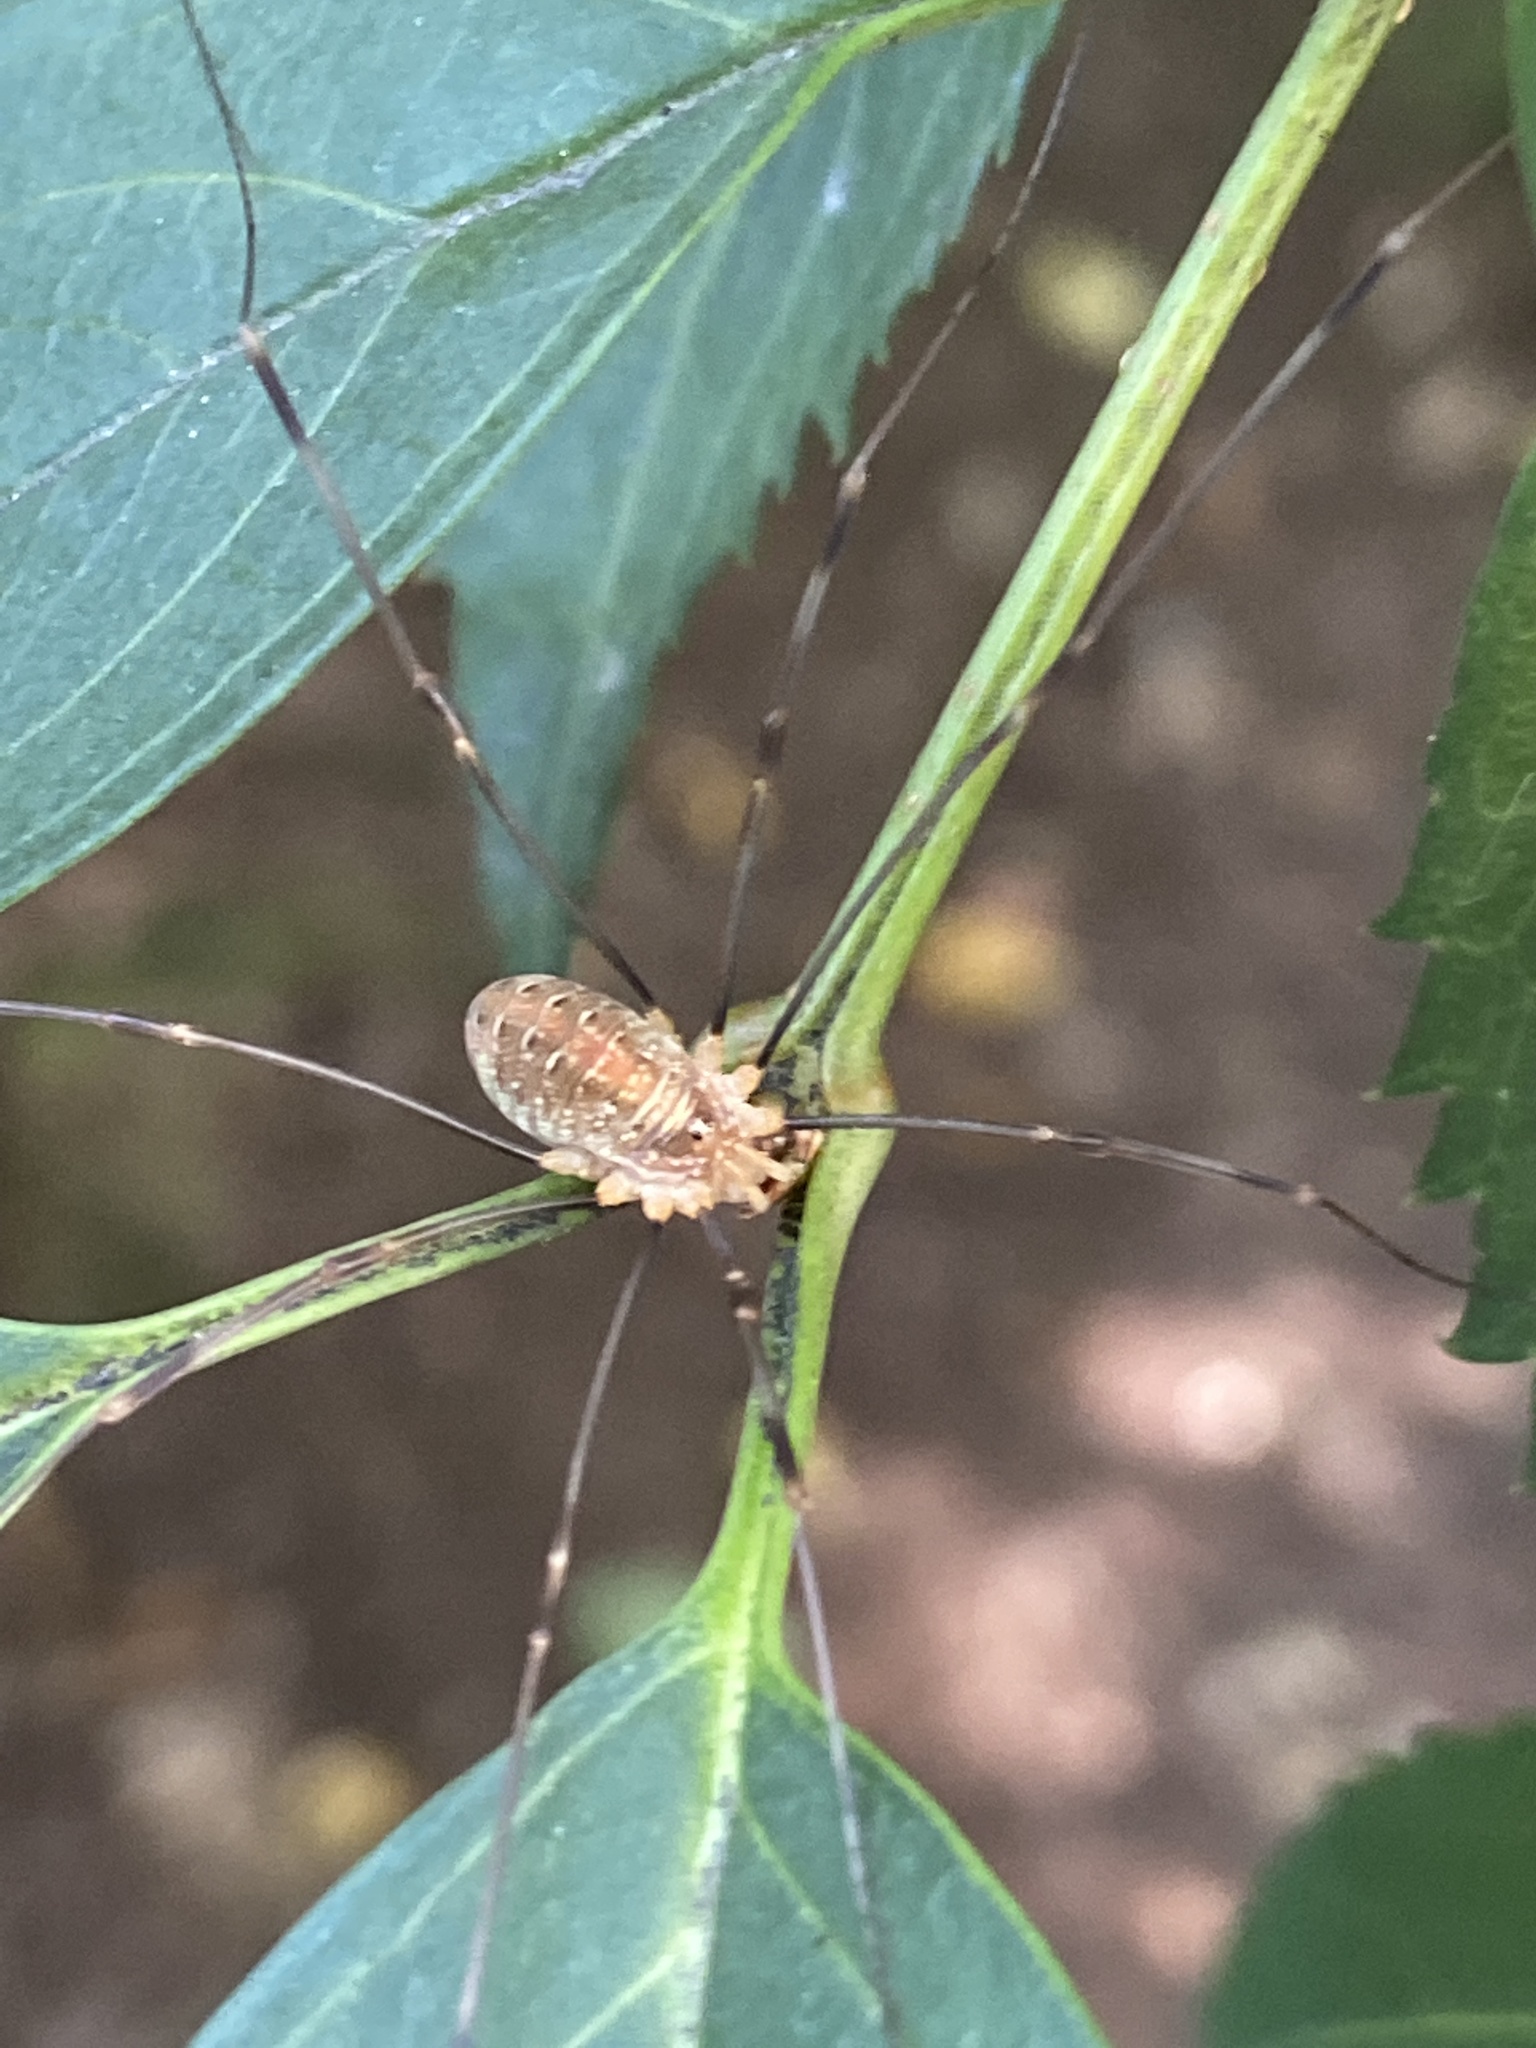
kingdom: Animalia
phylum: Arthropoda
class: Arachnida
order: Opiliones
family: Phalangiidae
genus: Opilio
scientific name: Opilio canestrinii
